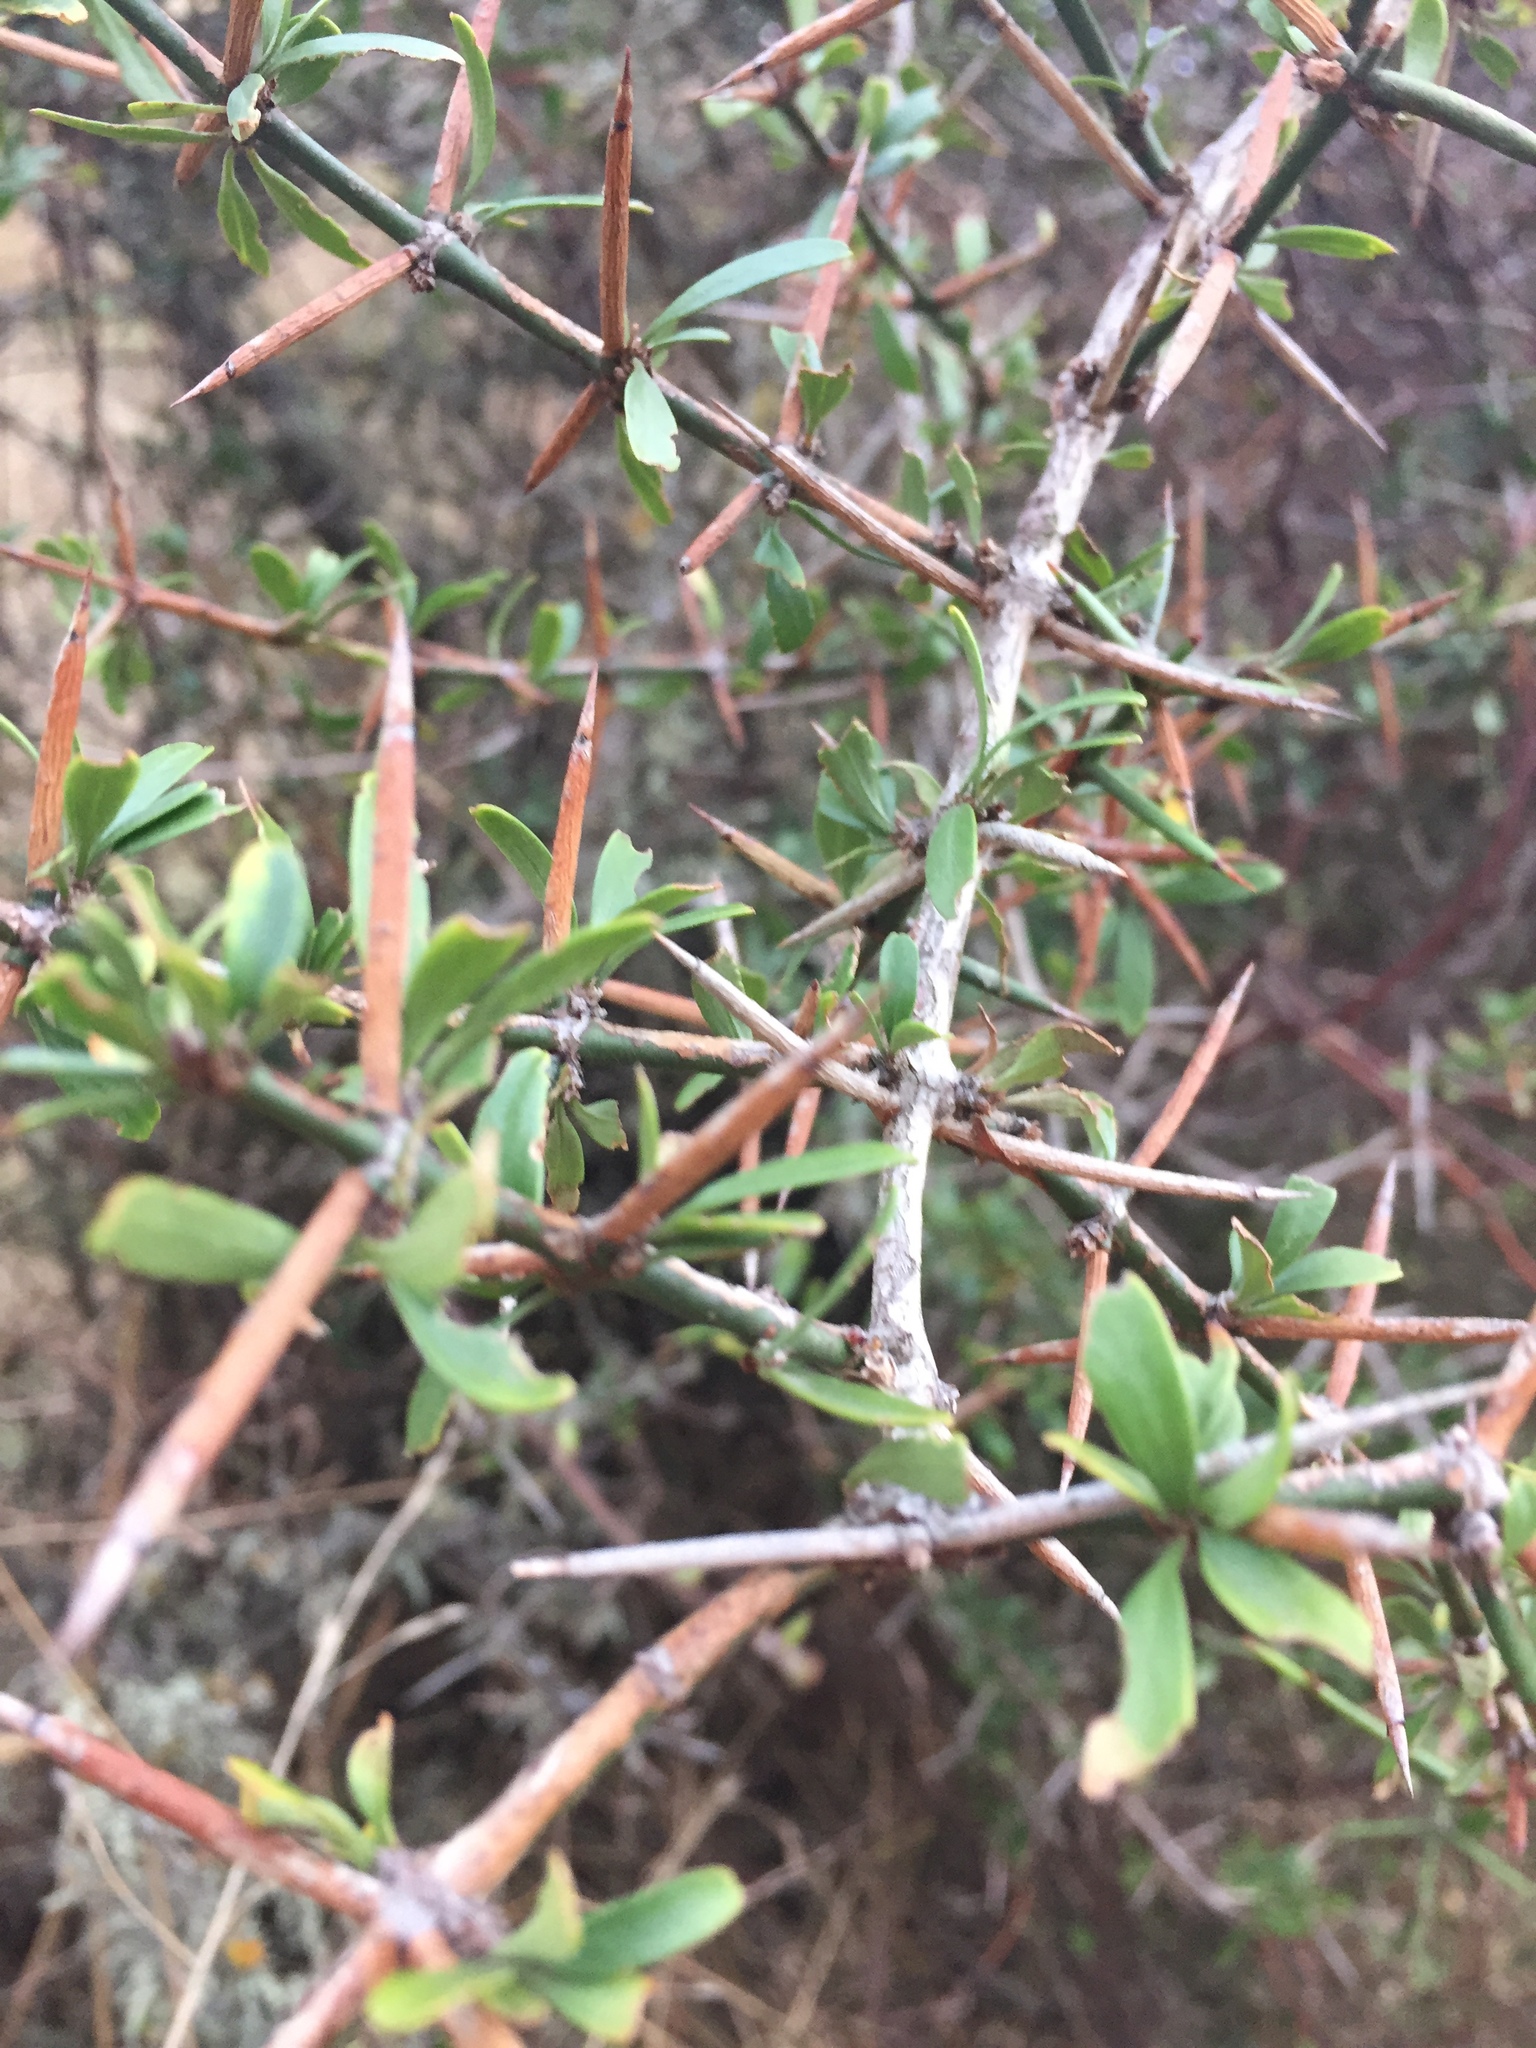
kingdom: Plantae
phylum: Tracheophyta
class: Magnoliopsida
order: Rosales
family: Rhamnaceae
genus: Discaria
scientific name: Discaria toumatou
